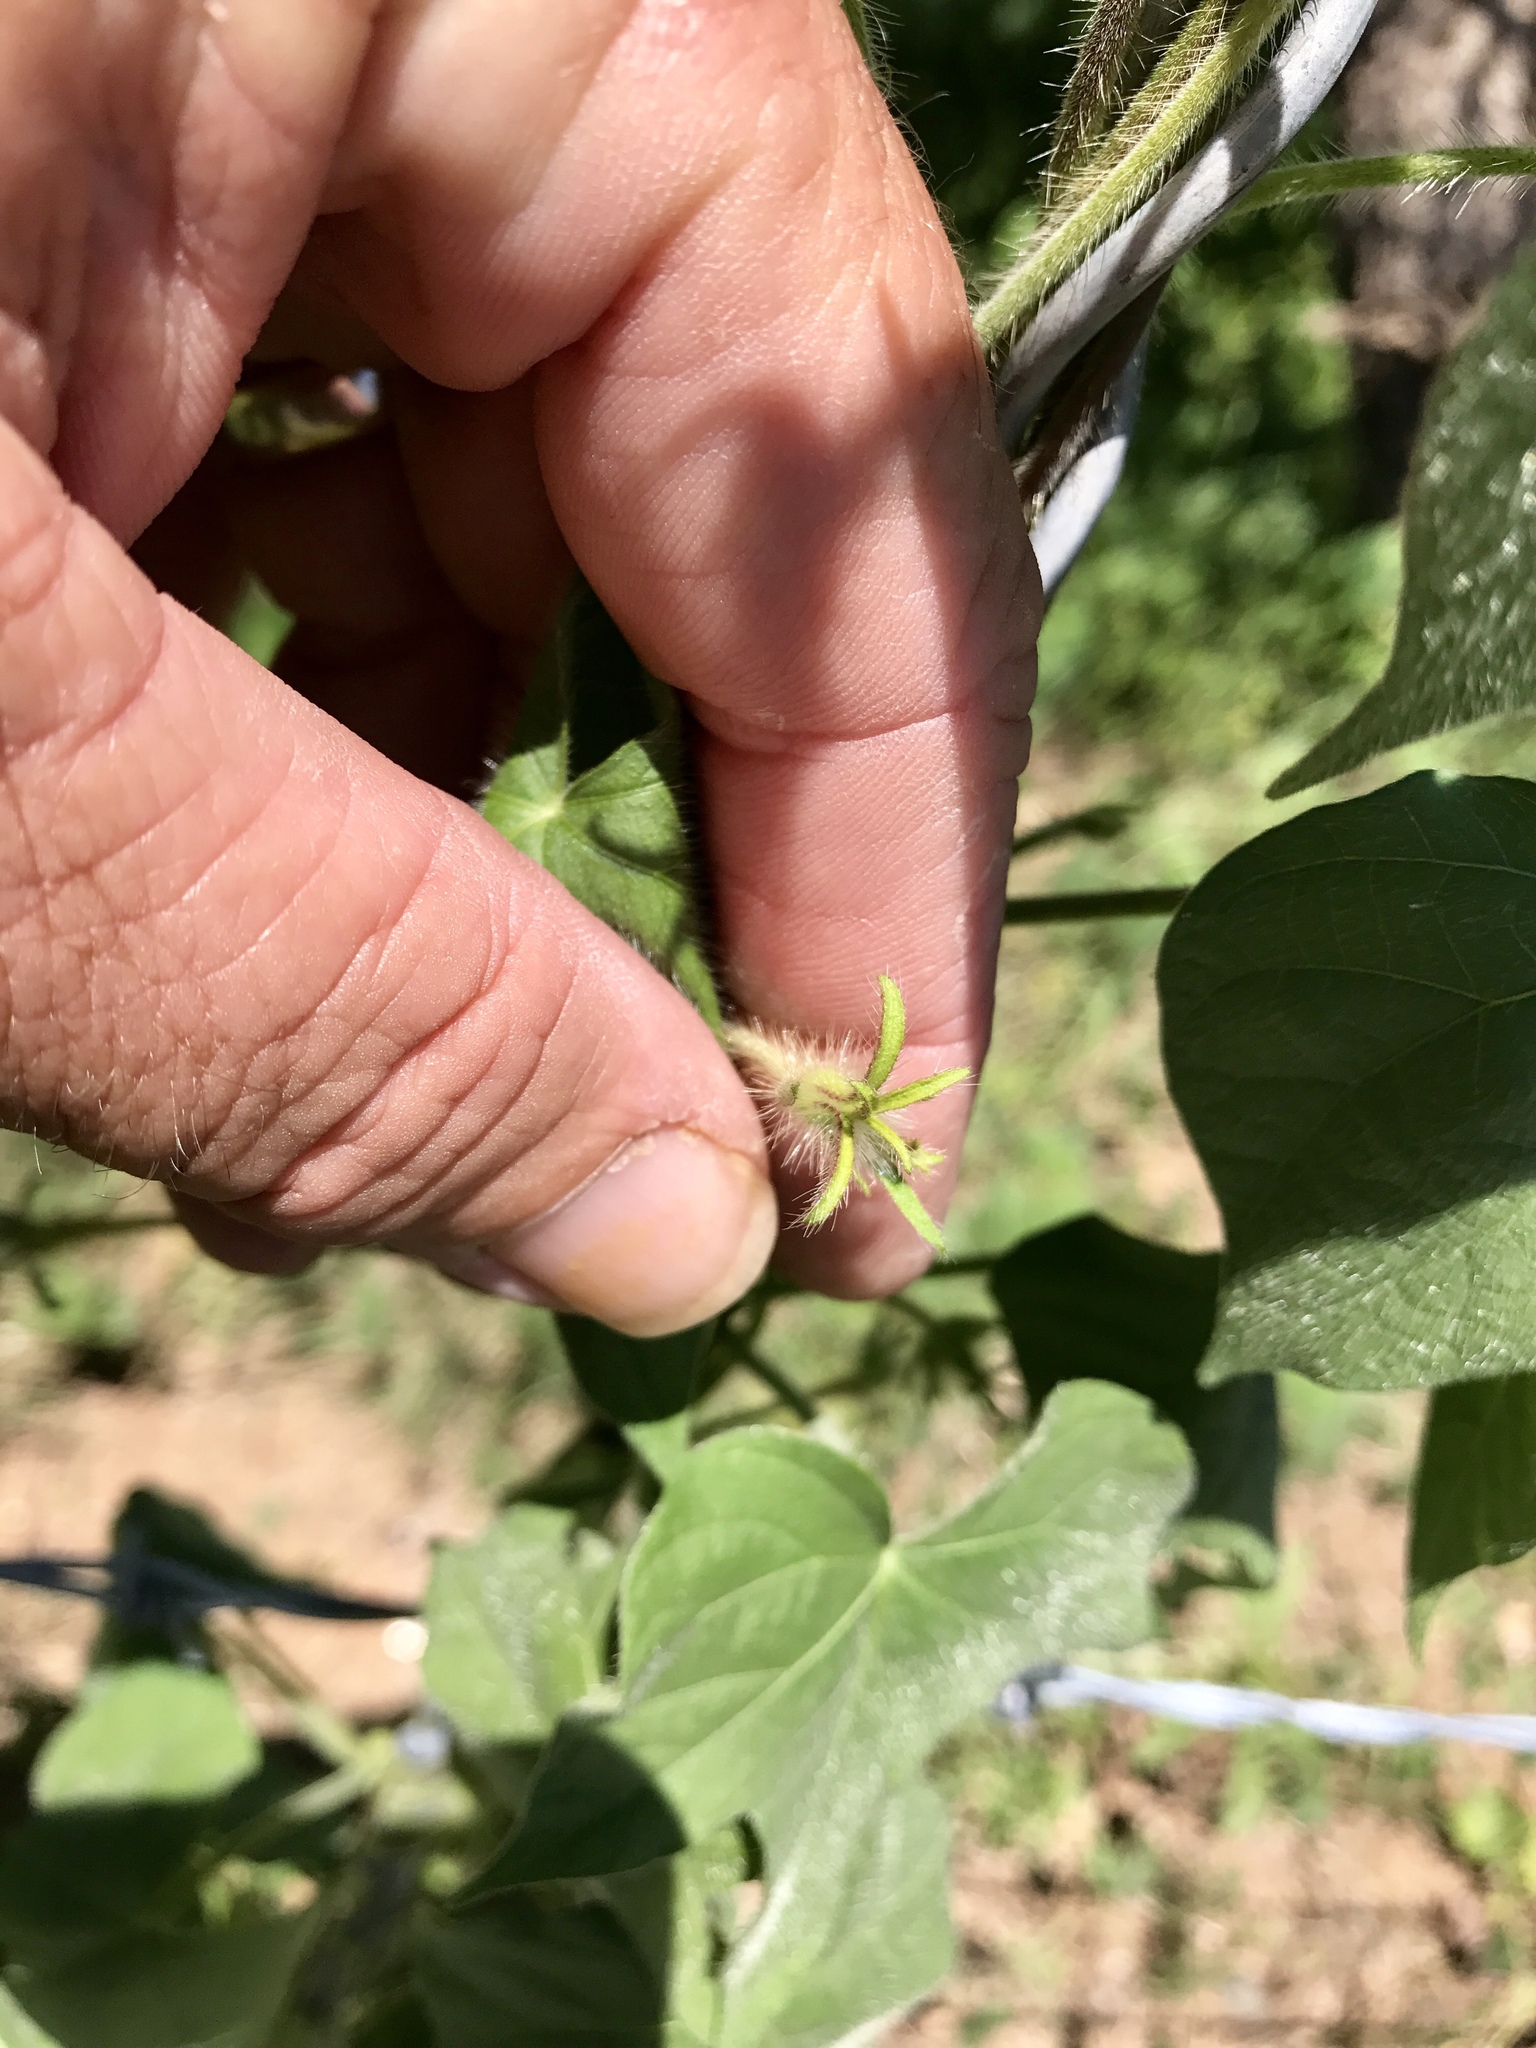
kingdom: Plantae
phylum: Tracheophyta
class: Magnoliopsida
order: Solanales
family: Convolvulaceae
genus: Ipomoea
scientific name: Ipomoea hederacea
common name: Ivy-leaved morning-glory
